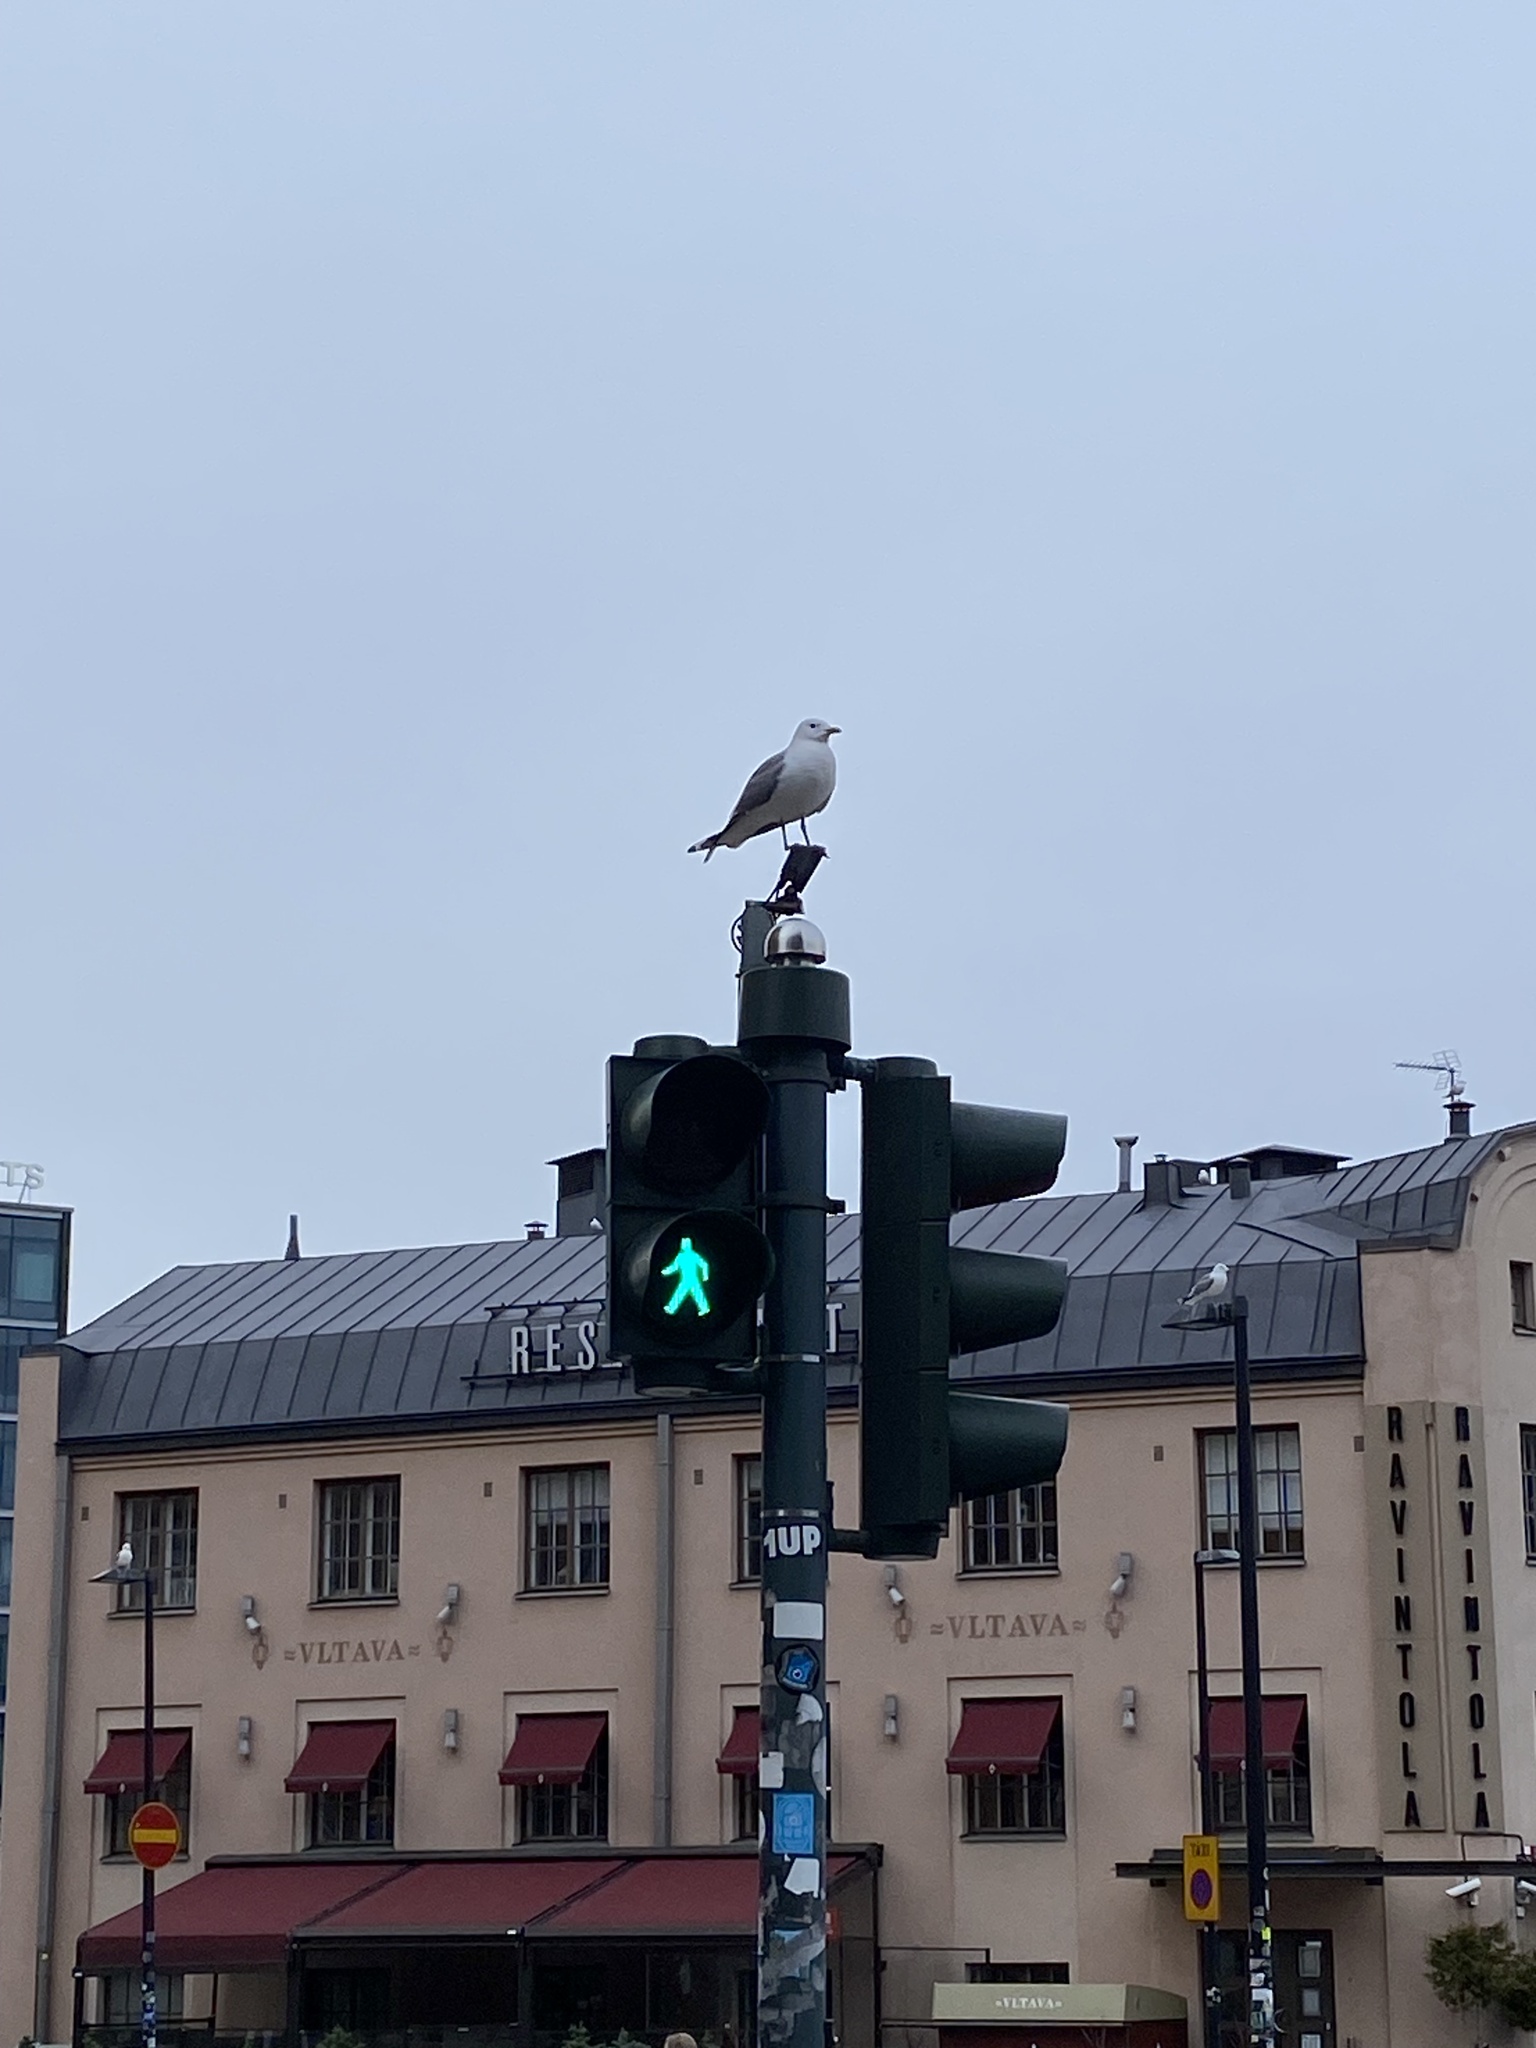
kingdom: Animalia
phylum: Chordata
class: Aves
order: Charadriiformes
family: Laridae
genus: Larus
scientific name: Larus canus
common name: Mew gull
